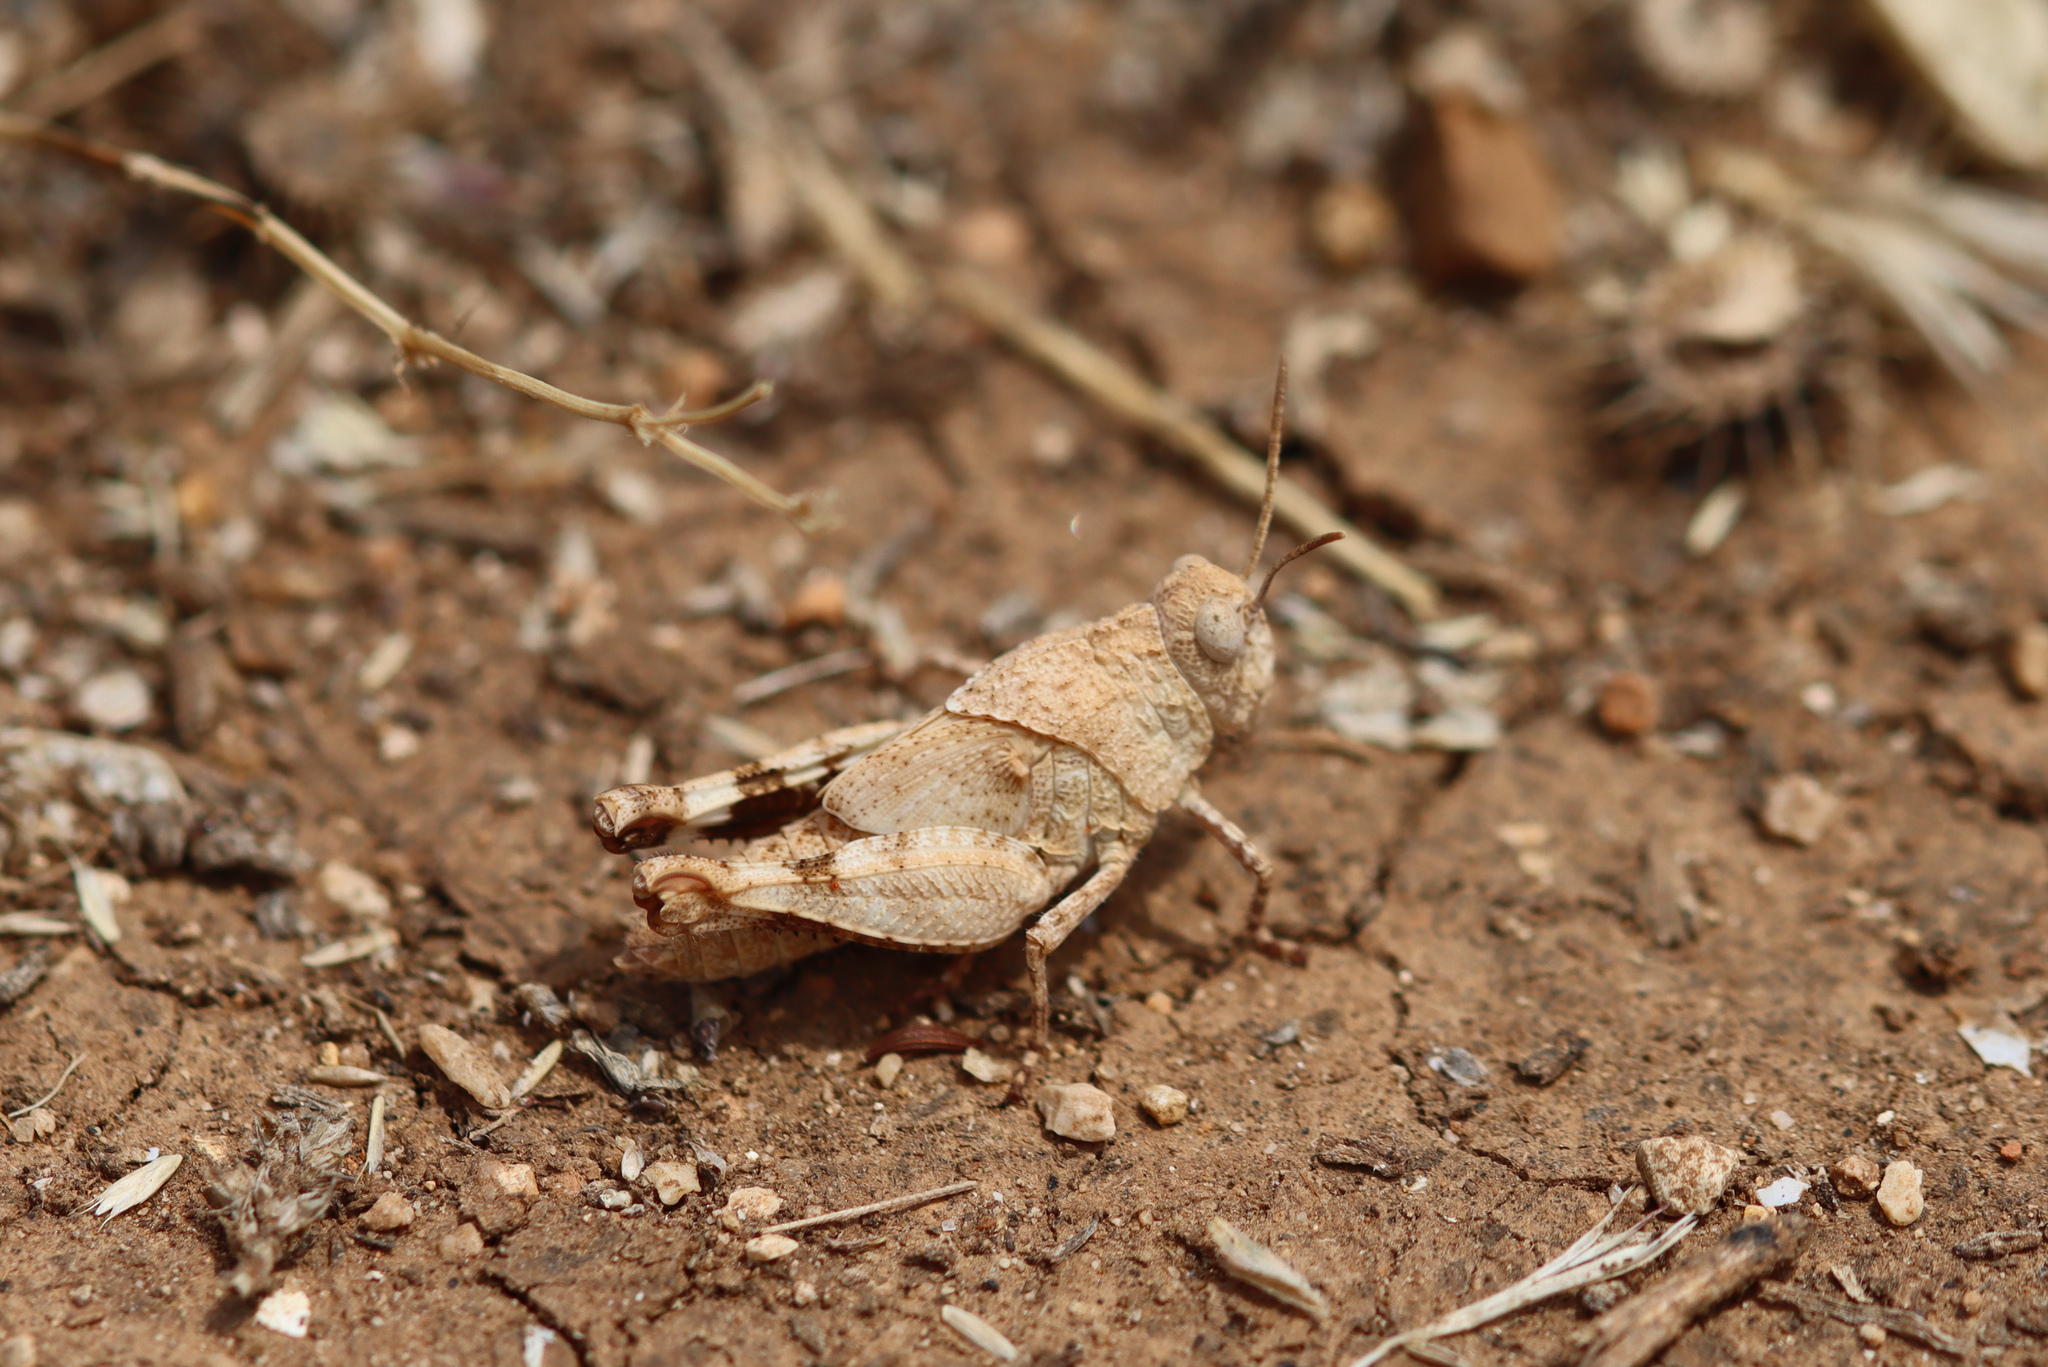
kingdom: Animalia
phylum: Arthropoda
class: Insecta
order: Orthoptera
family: Acrididae
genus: Oedipoda
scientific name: Oedipoda caerulescens
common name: Blue-winged grasshopper
